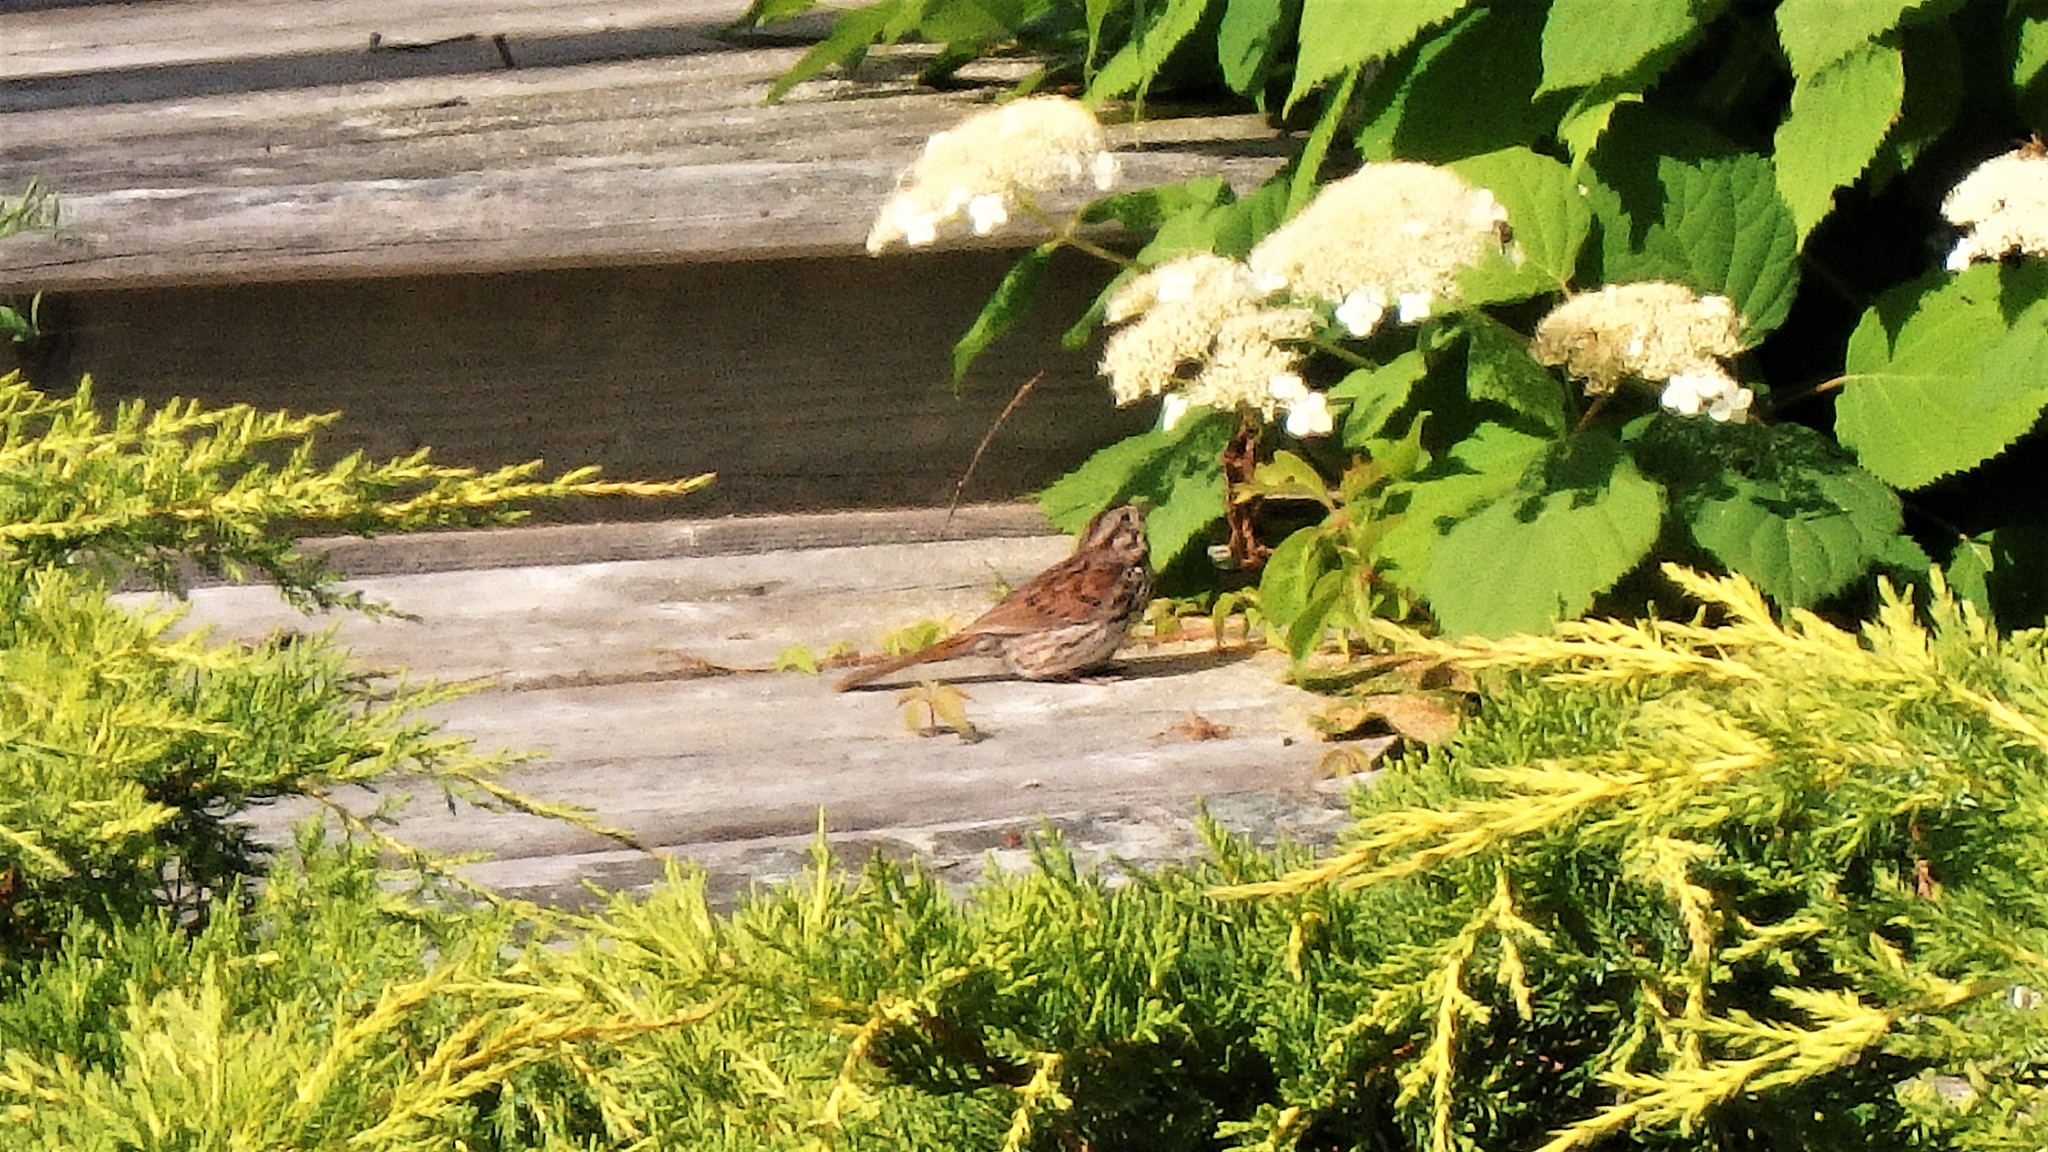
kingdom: Animalia
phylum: Chordata
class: Aves
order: Passeriformes
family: Passerellidae
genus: Melospiza
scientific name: Melospiza melodia
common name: Song sparrow
